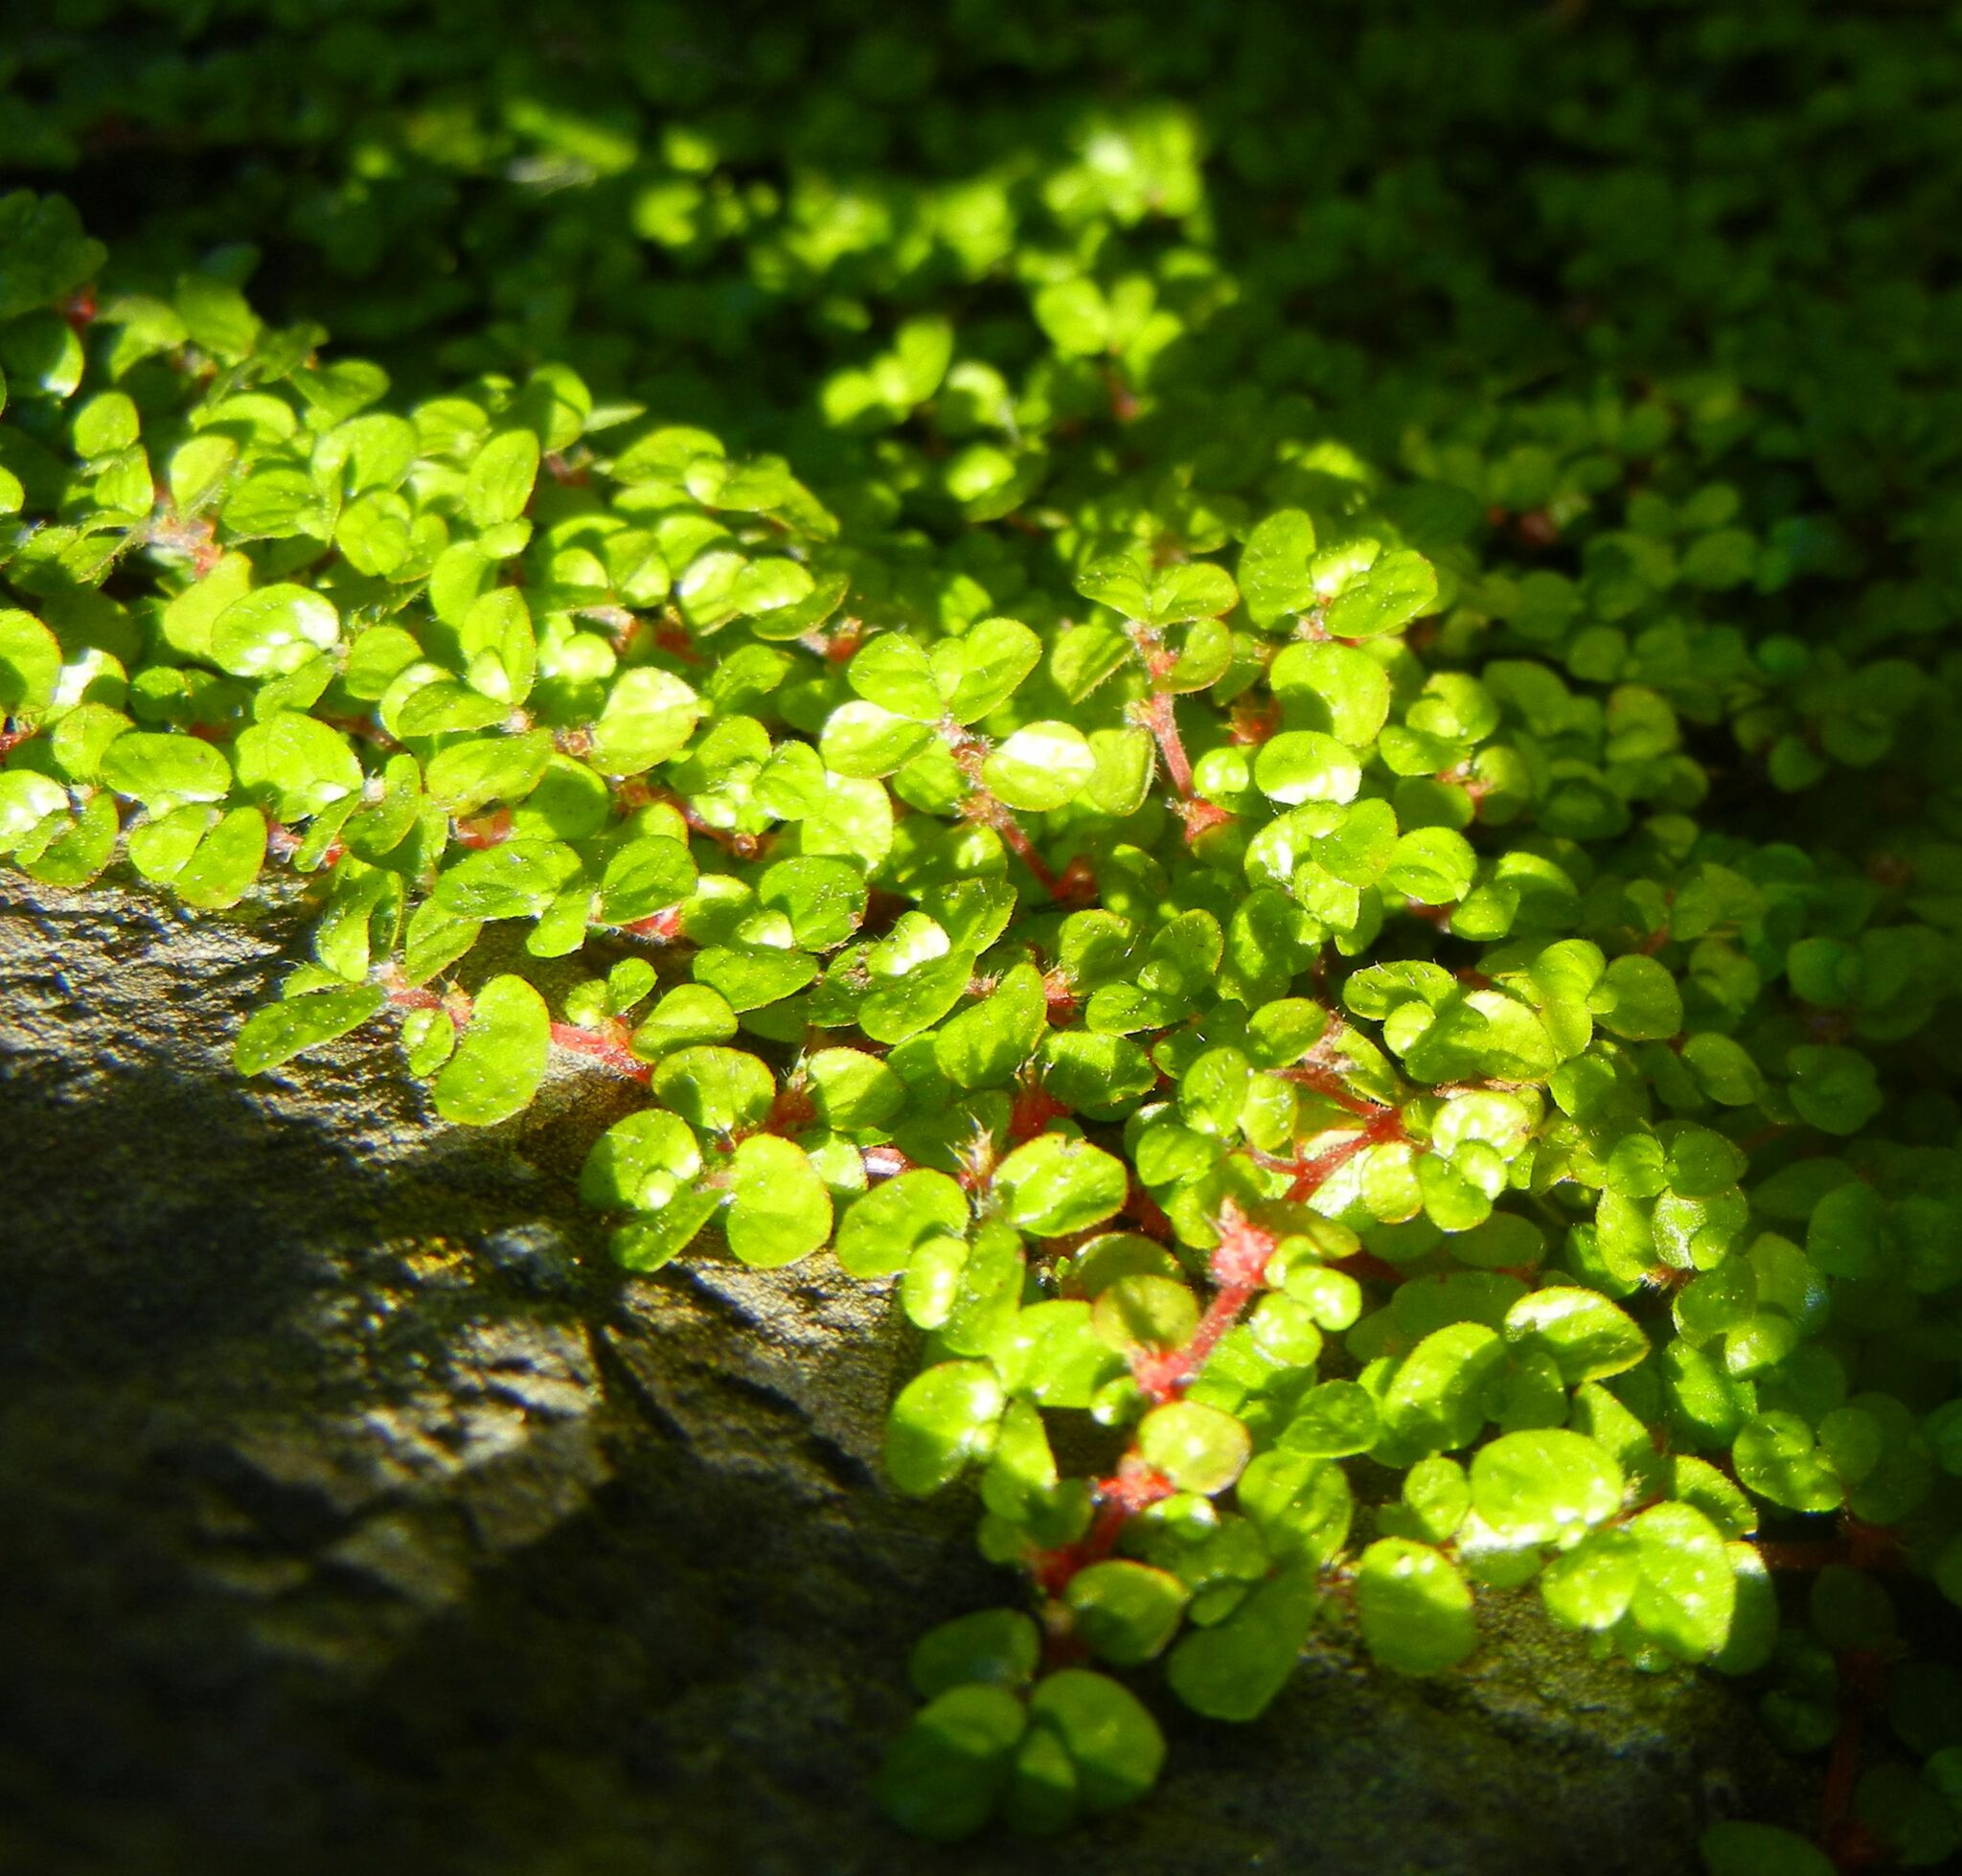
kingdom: Plantae
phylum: Tracheophyta
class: Magnoliopsida
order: Rosales
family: Urticaceae
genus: Soleirolia
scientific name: Soleirolia soleirolii
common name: Mind-your-own-business
